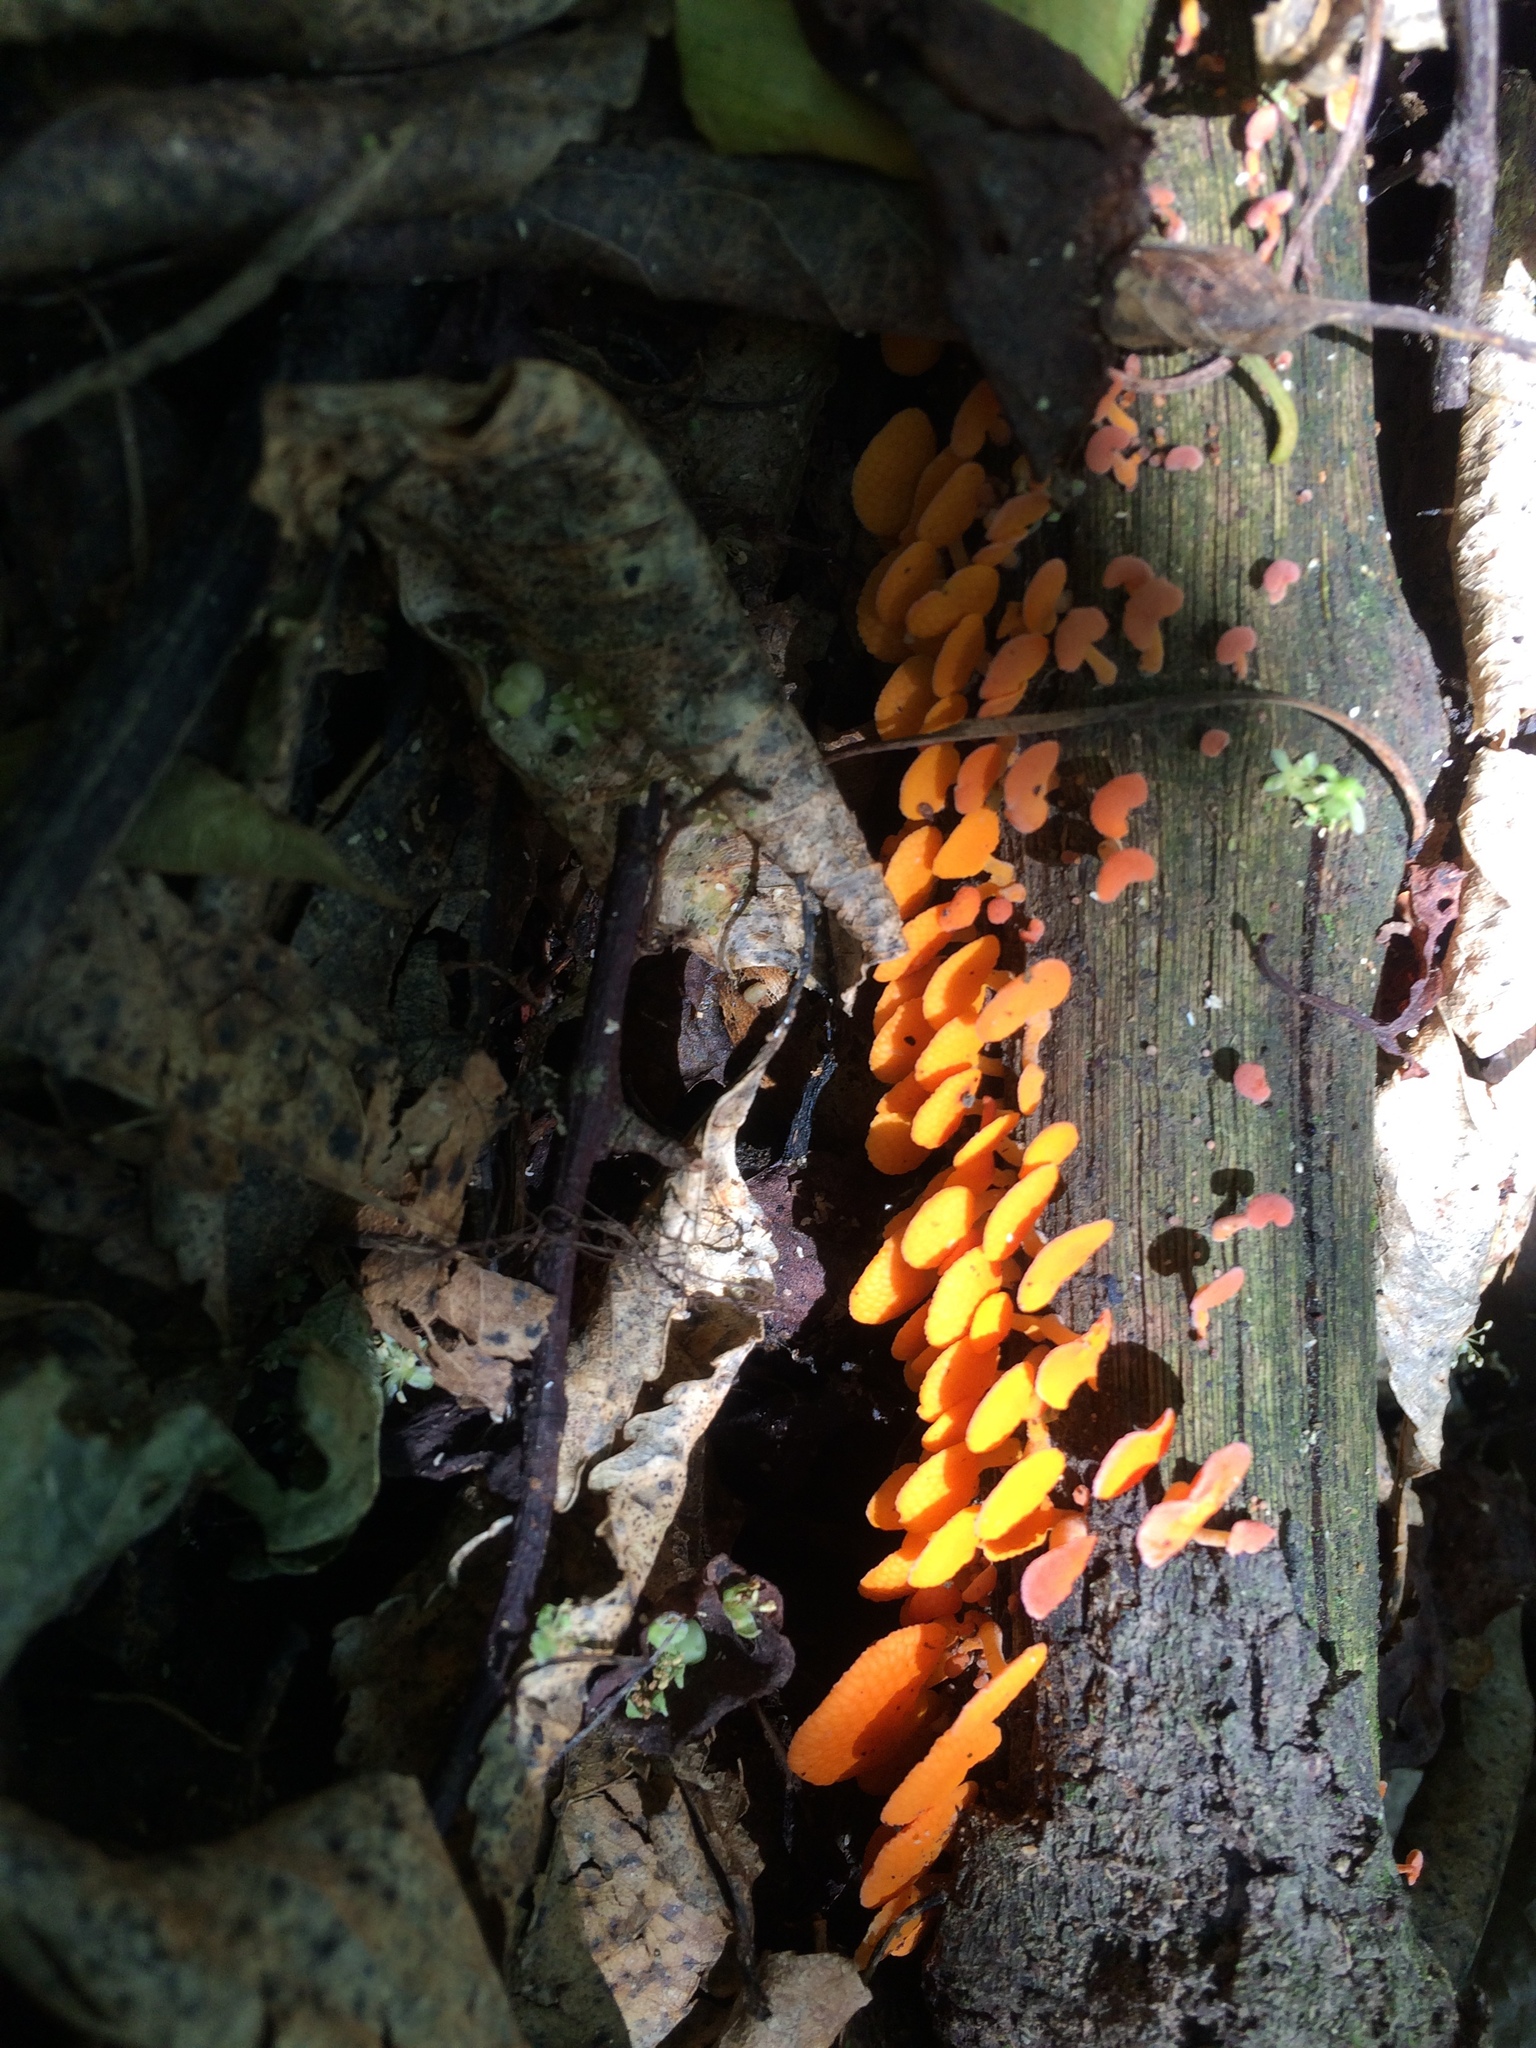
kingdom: Fungi
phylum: Basidiomycota
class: Agaricomycetes
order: Agaricales
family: Mycenaceae
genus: Favolaschia
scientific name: Favolaschia claudopus
